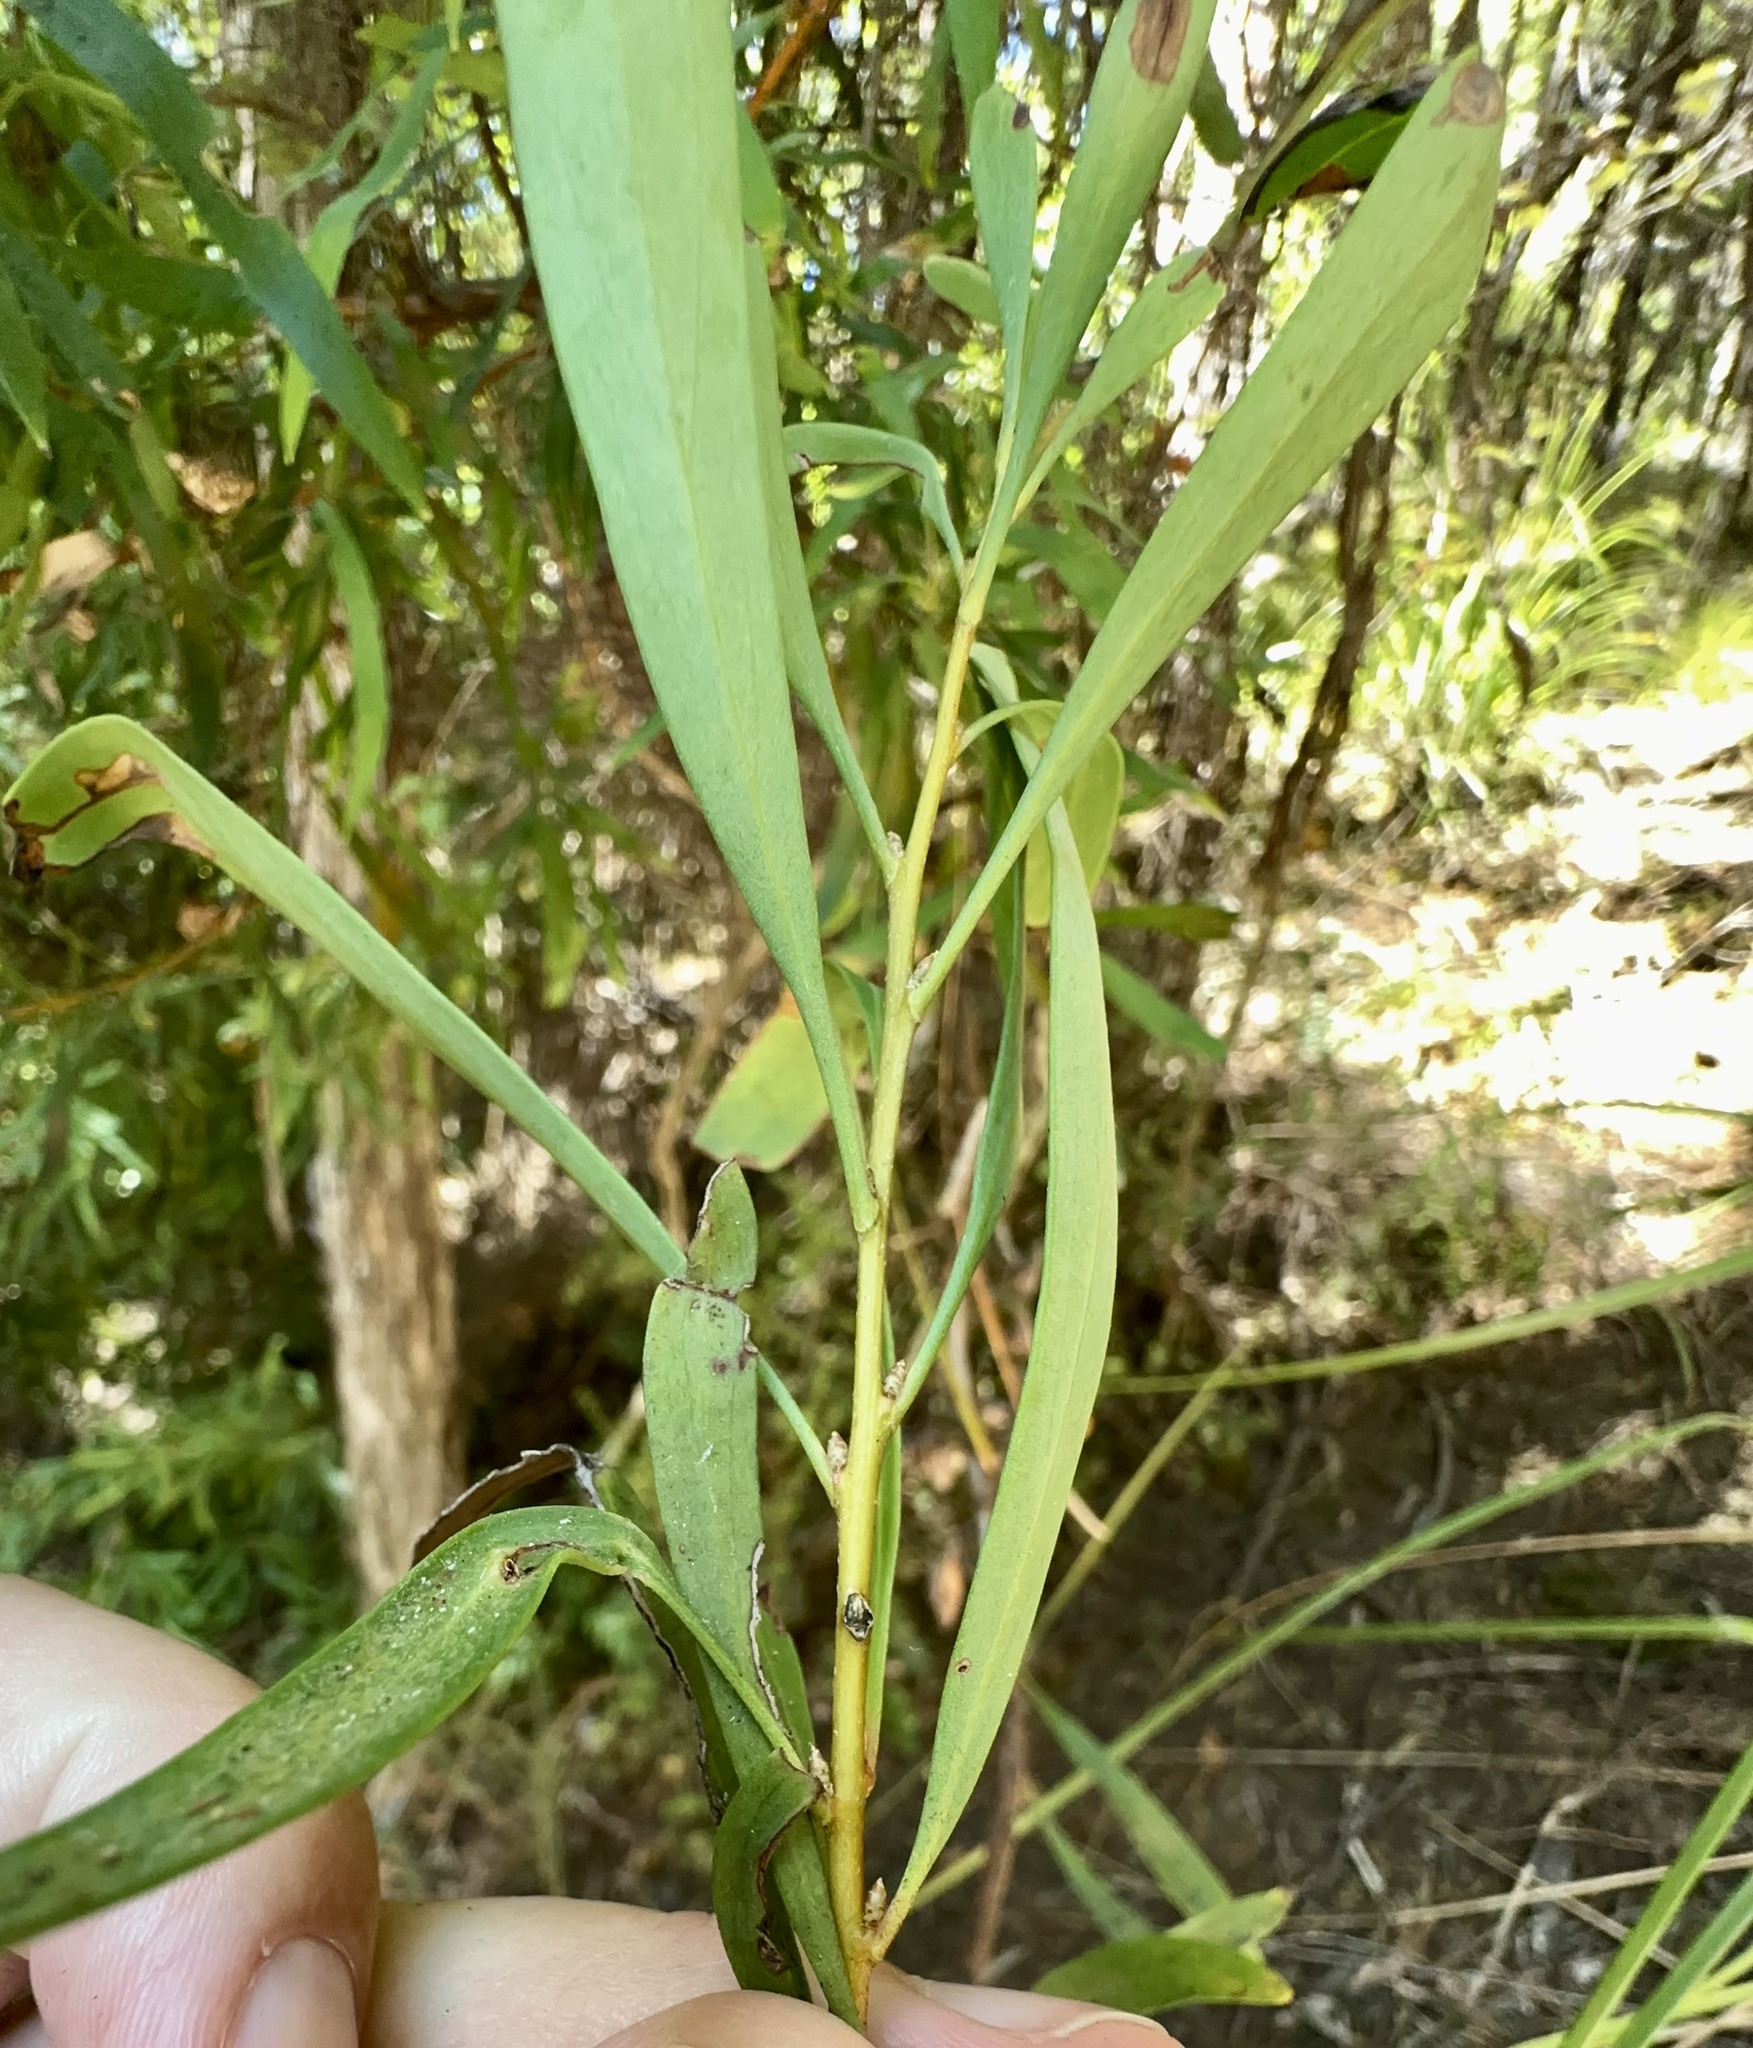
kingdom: Plantae
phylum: Tracheophyta
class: Magnoliopsida
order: Proteales
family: Proteaceae
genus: Hakea
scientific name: Hakea salicifolia
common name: Willow hakea
